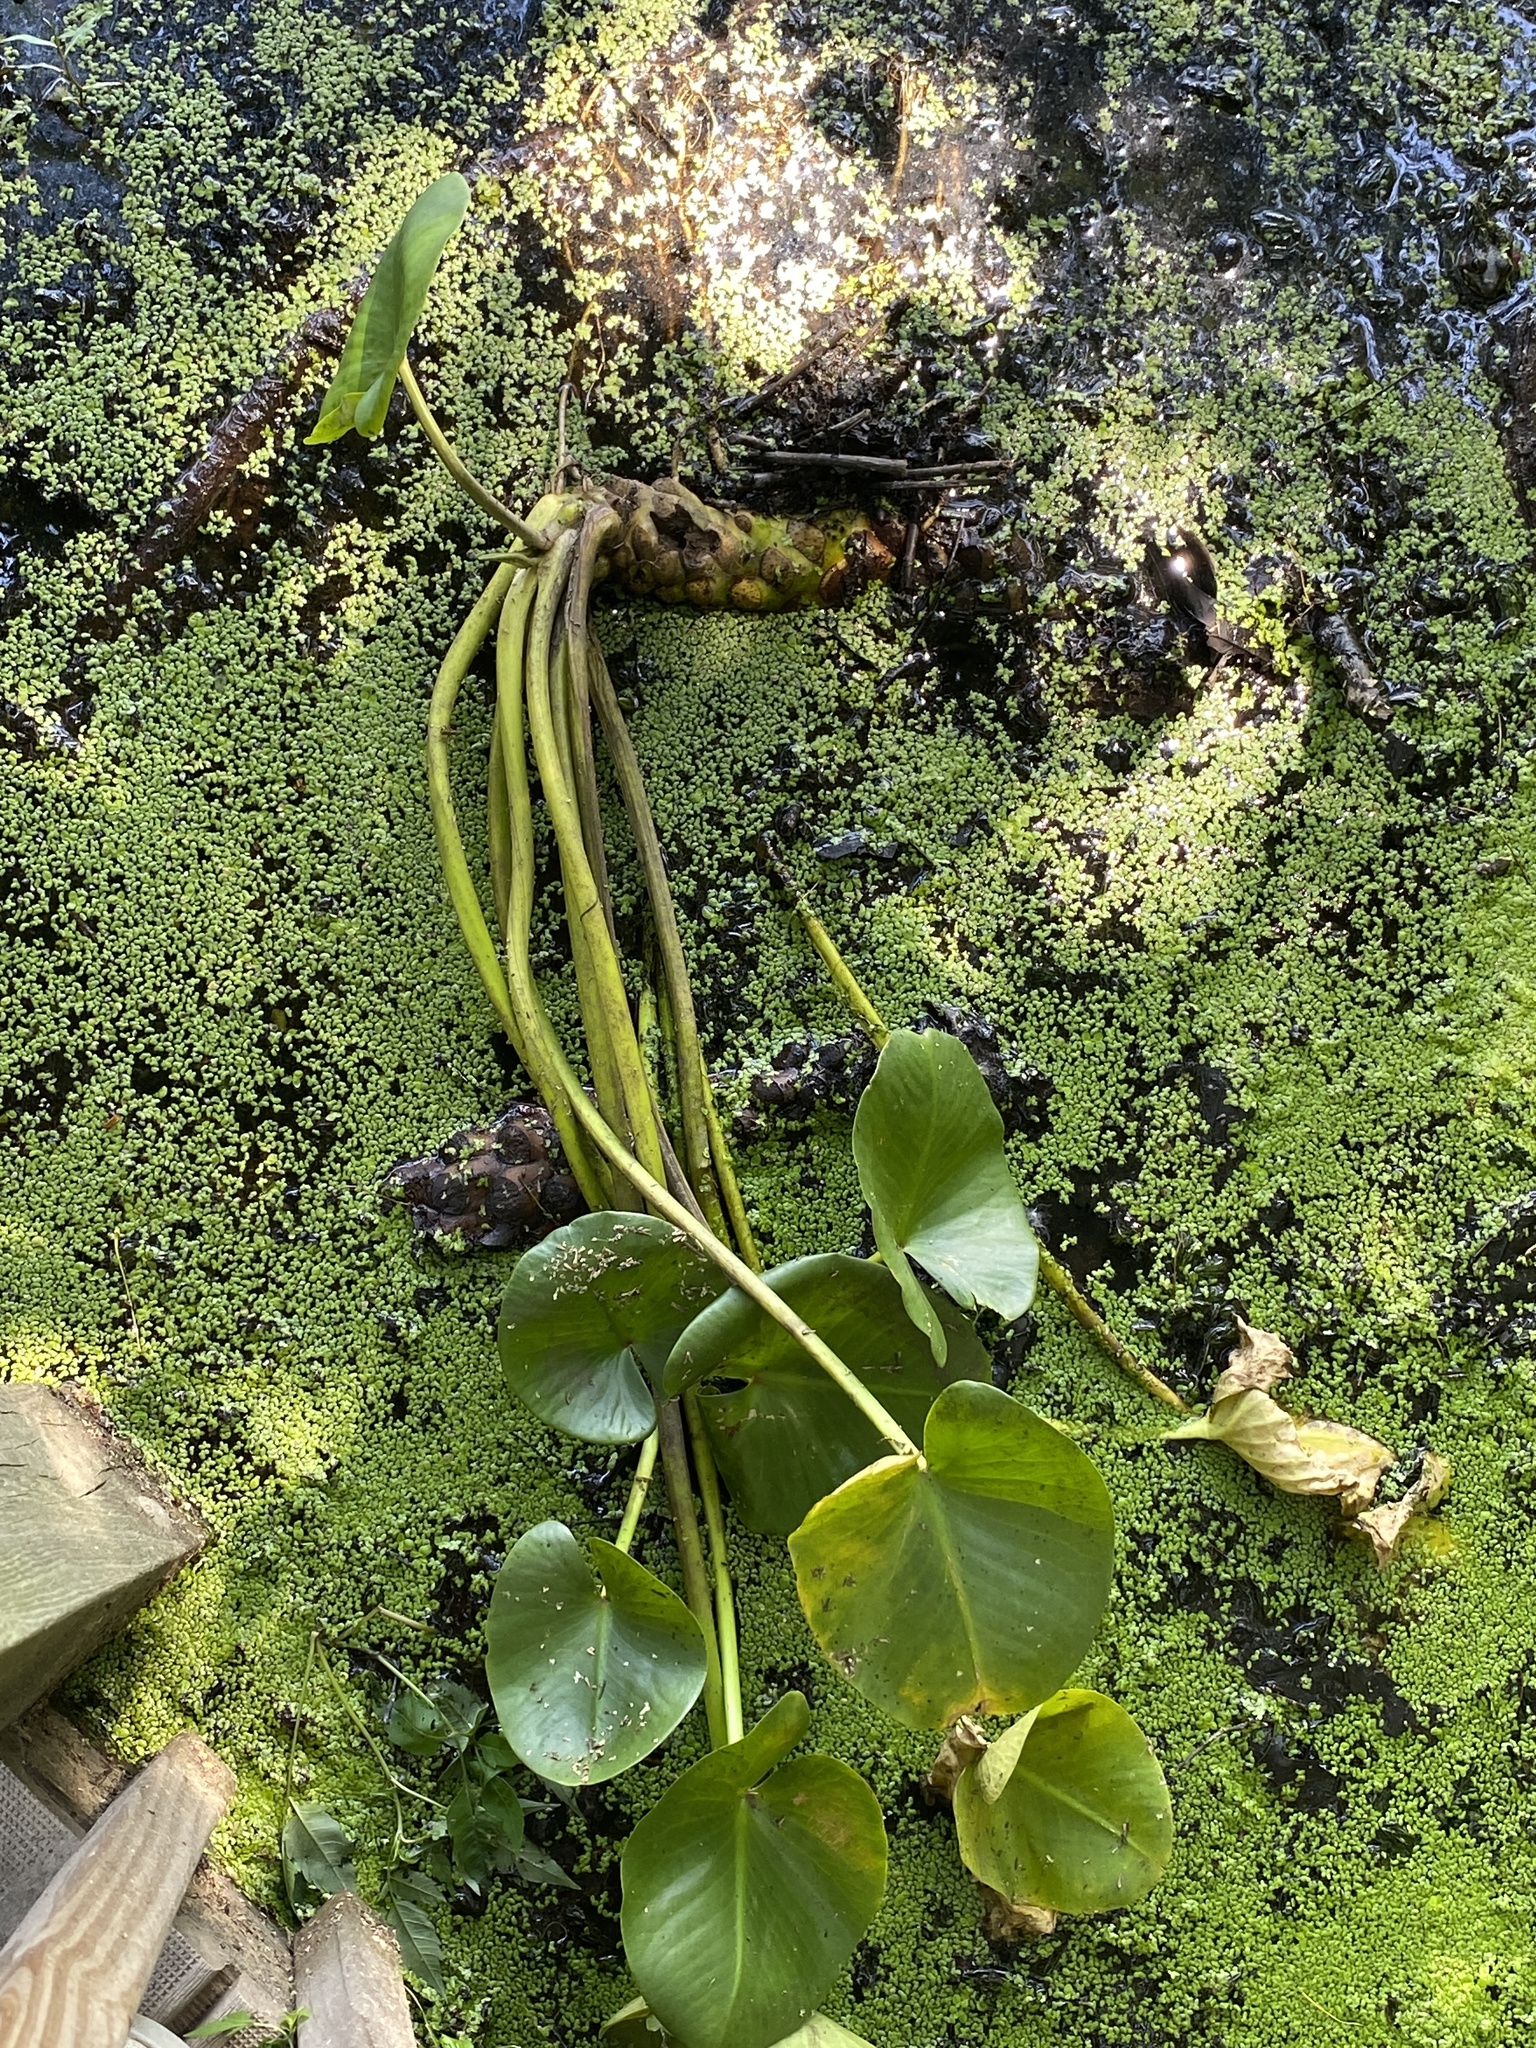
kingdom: Plantae
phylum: Tracheophyta
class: Magnoliopsida
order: Nymphaeales
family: Nymphaeaceae
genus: Nuphar
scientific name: Nuphar advena
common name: Spatter-dock
